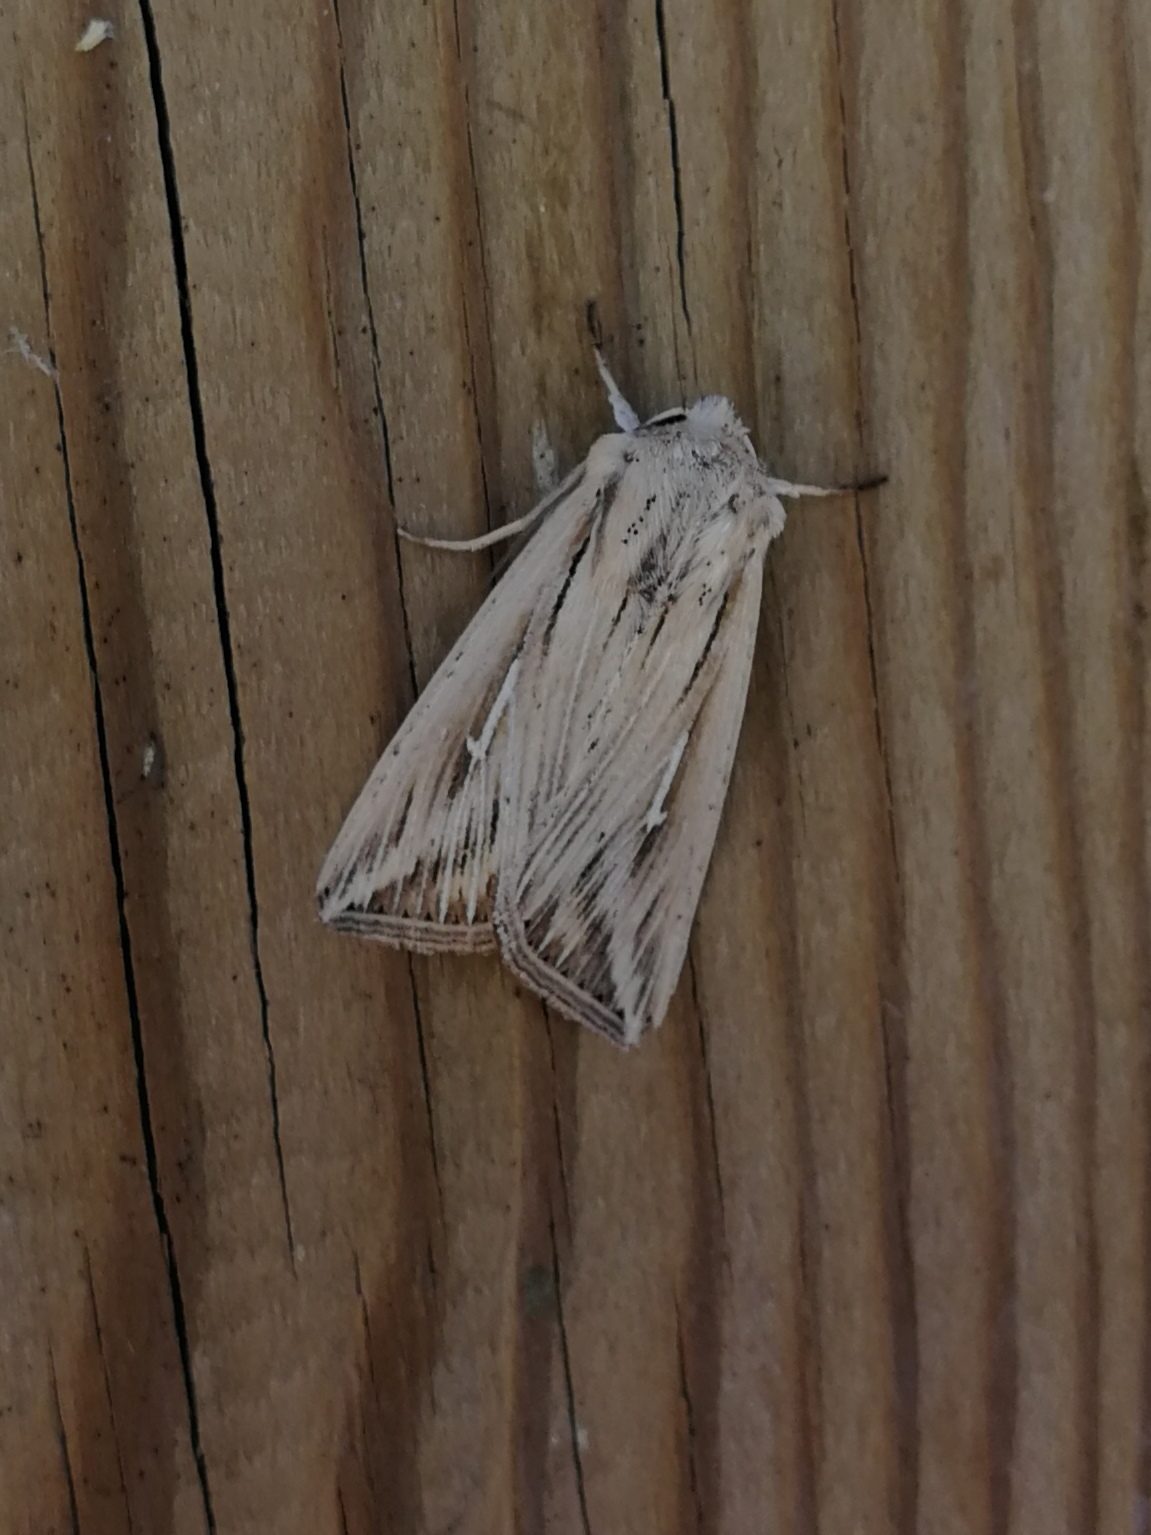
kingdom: Animalia
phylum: Arthropoda
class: Insecta
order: Lepidoptera
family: Noctuidae
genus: Mythimna
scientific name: Mythimna l-album
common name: L-album wainscot
